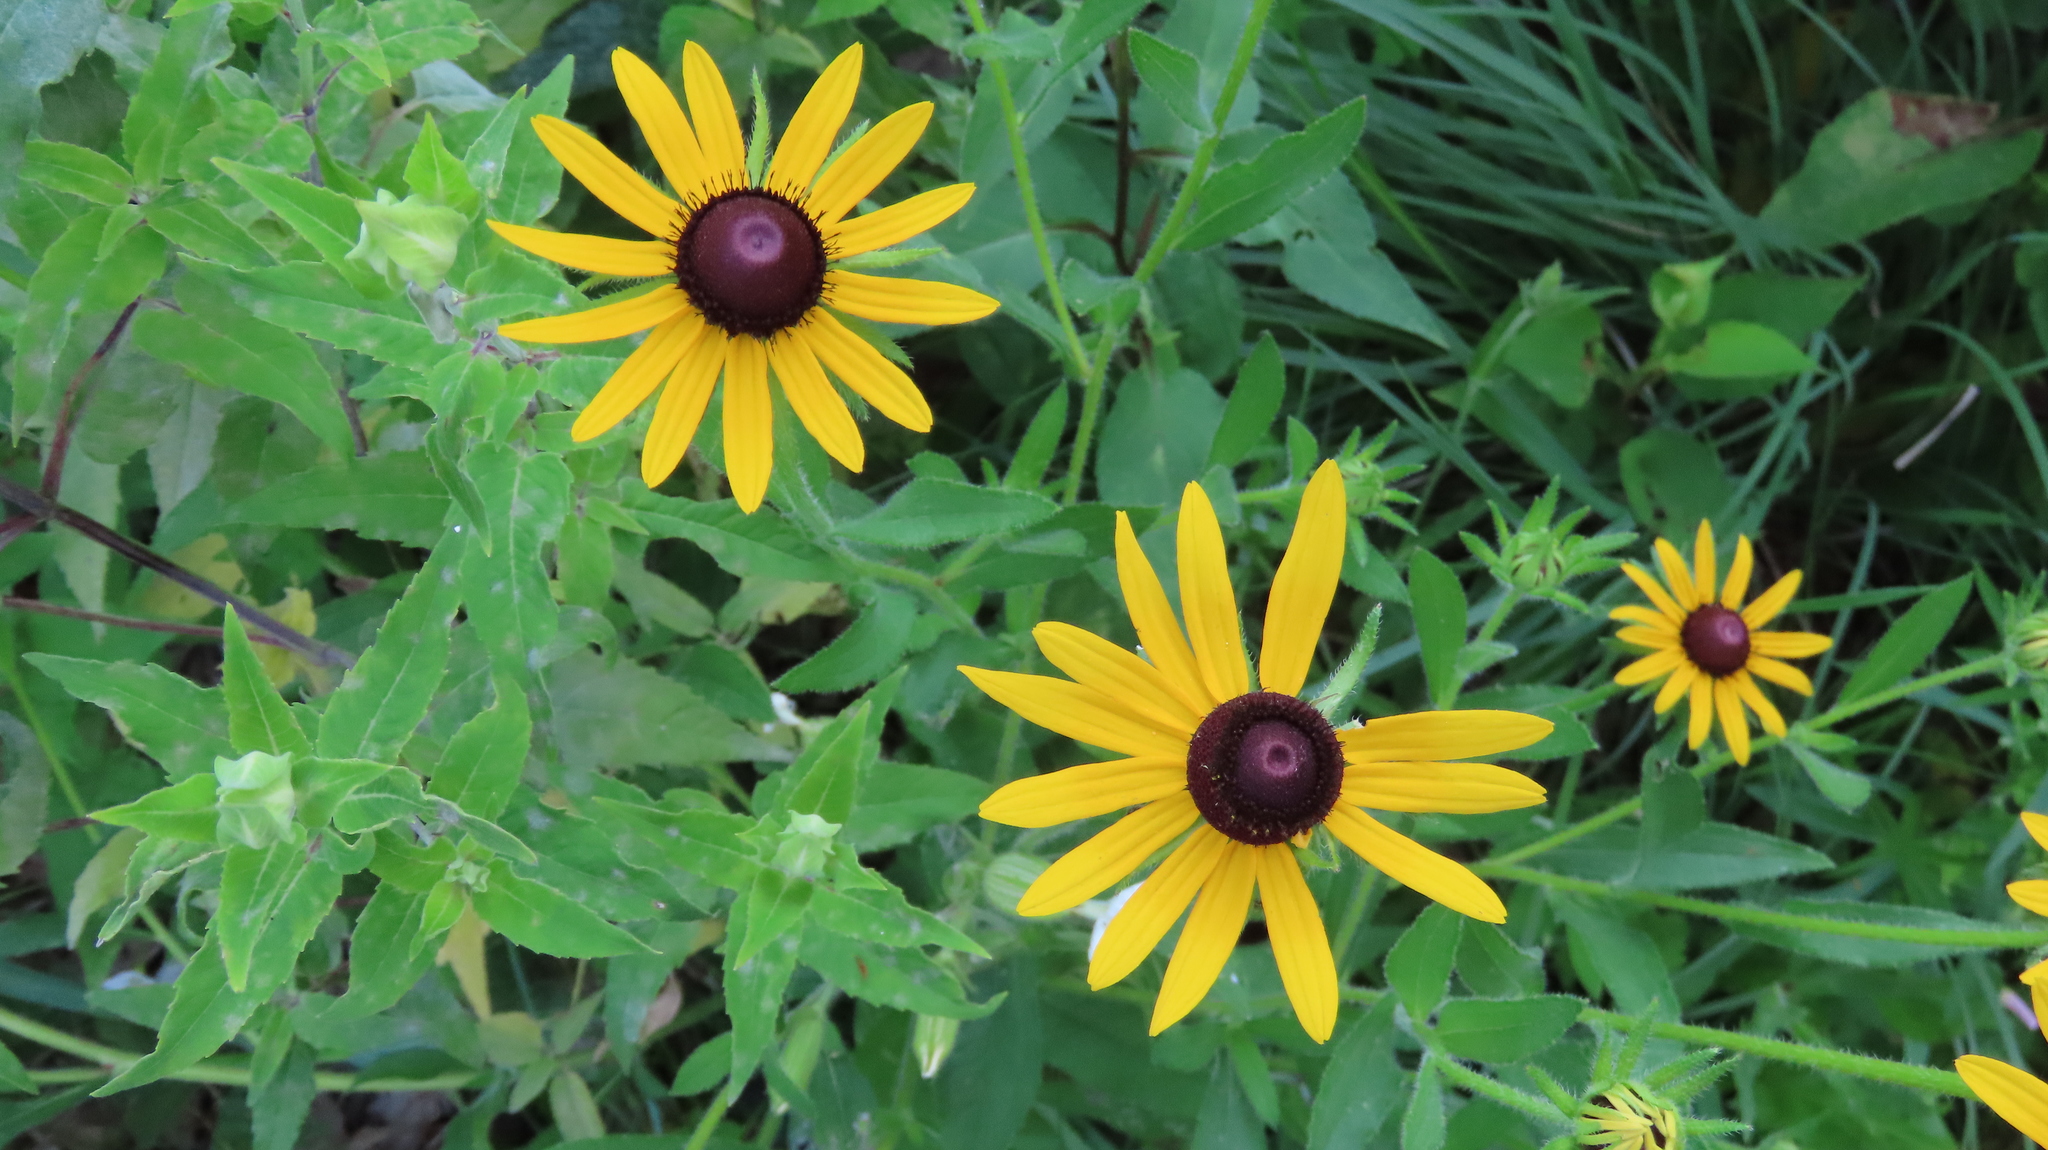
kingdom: Plantae
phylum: Tracheophyta
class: Magnoliopsida
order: Asterales
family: Asteraceae
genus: Rudbeckia
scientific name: Rudbeckia hirta
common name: Black-eyed-susan
